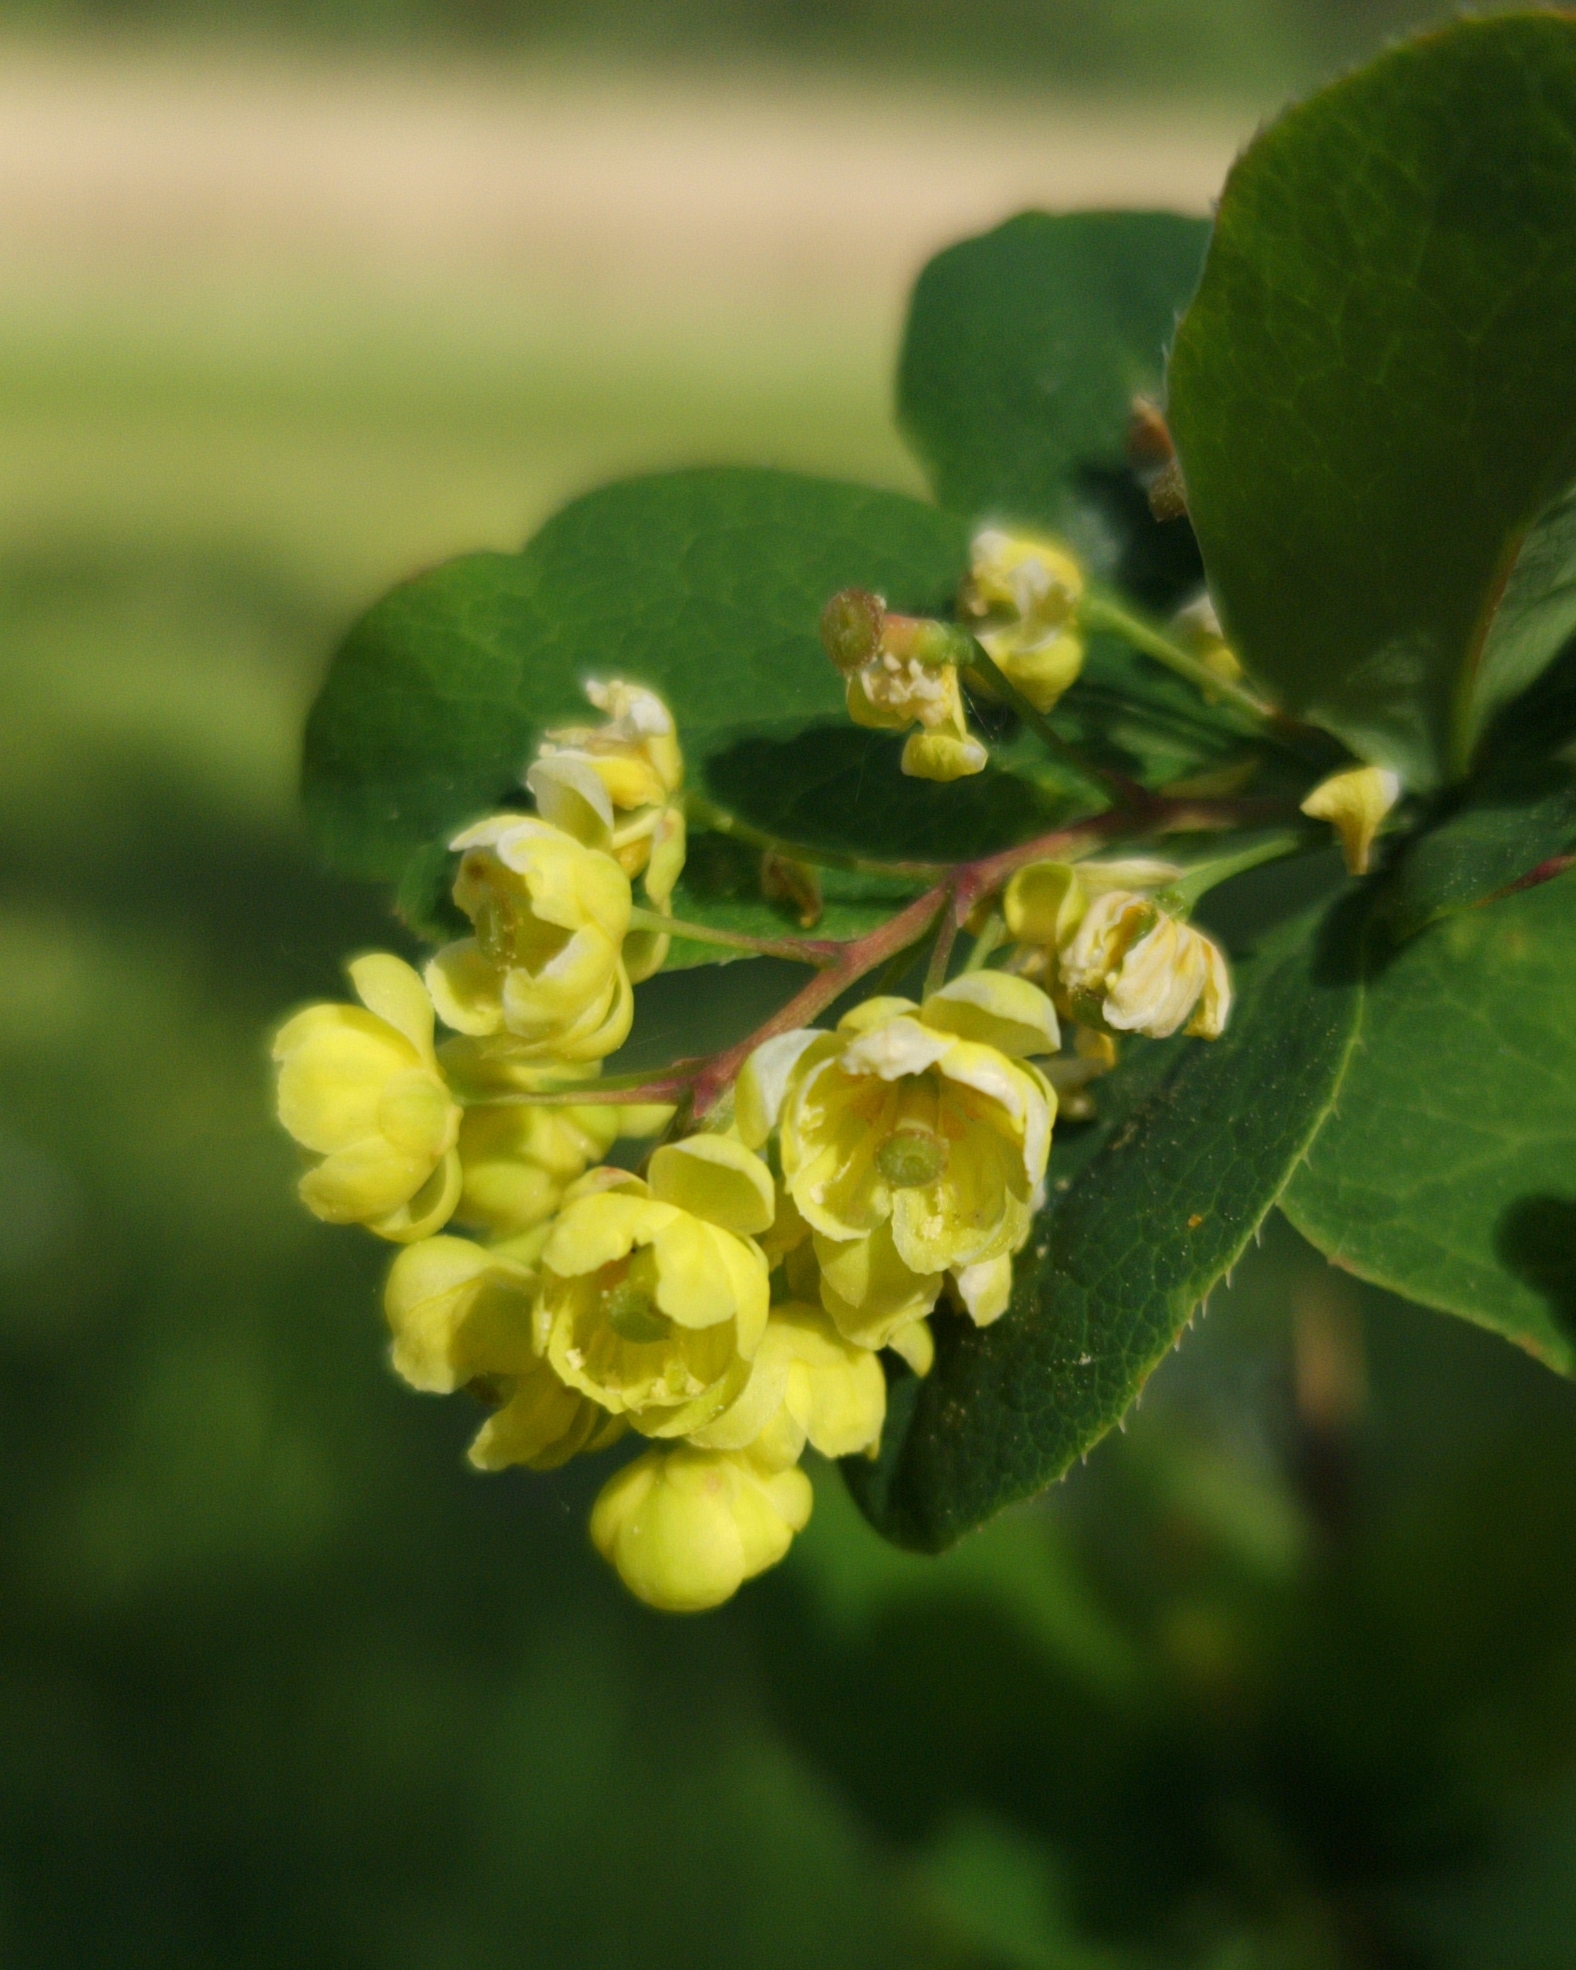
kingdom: Plantae
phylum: Tracheophyta
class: Magnoliopsida
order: Ranunculales
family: Berberidaceae
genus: Berberis
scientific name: Berberis vulgaris
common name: Barberry
